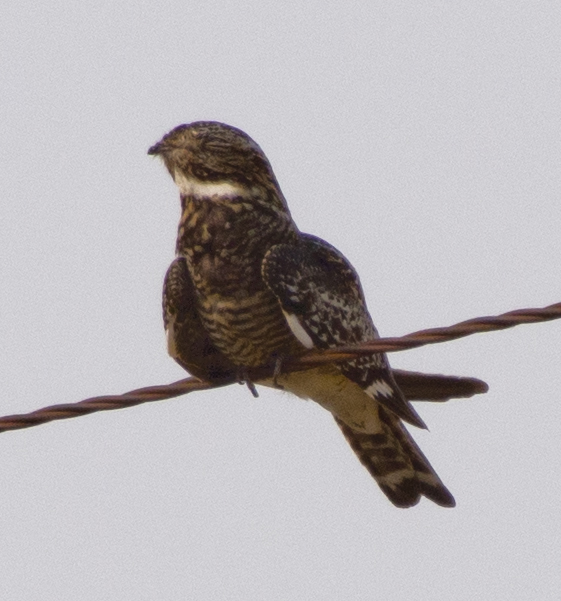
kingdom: Animalia
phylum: Chordata
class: Aves
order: Caprimulgiformes
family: Caprimulgidae
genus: Chordeiles
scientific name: Chordeiles minor
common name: Common nighthawk
